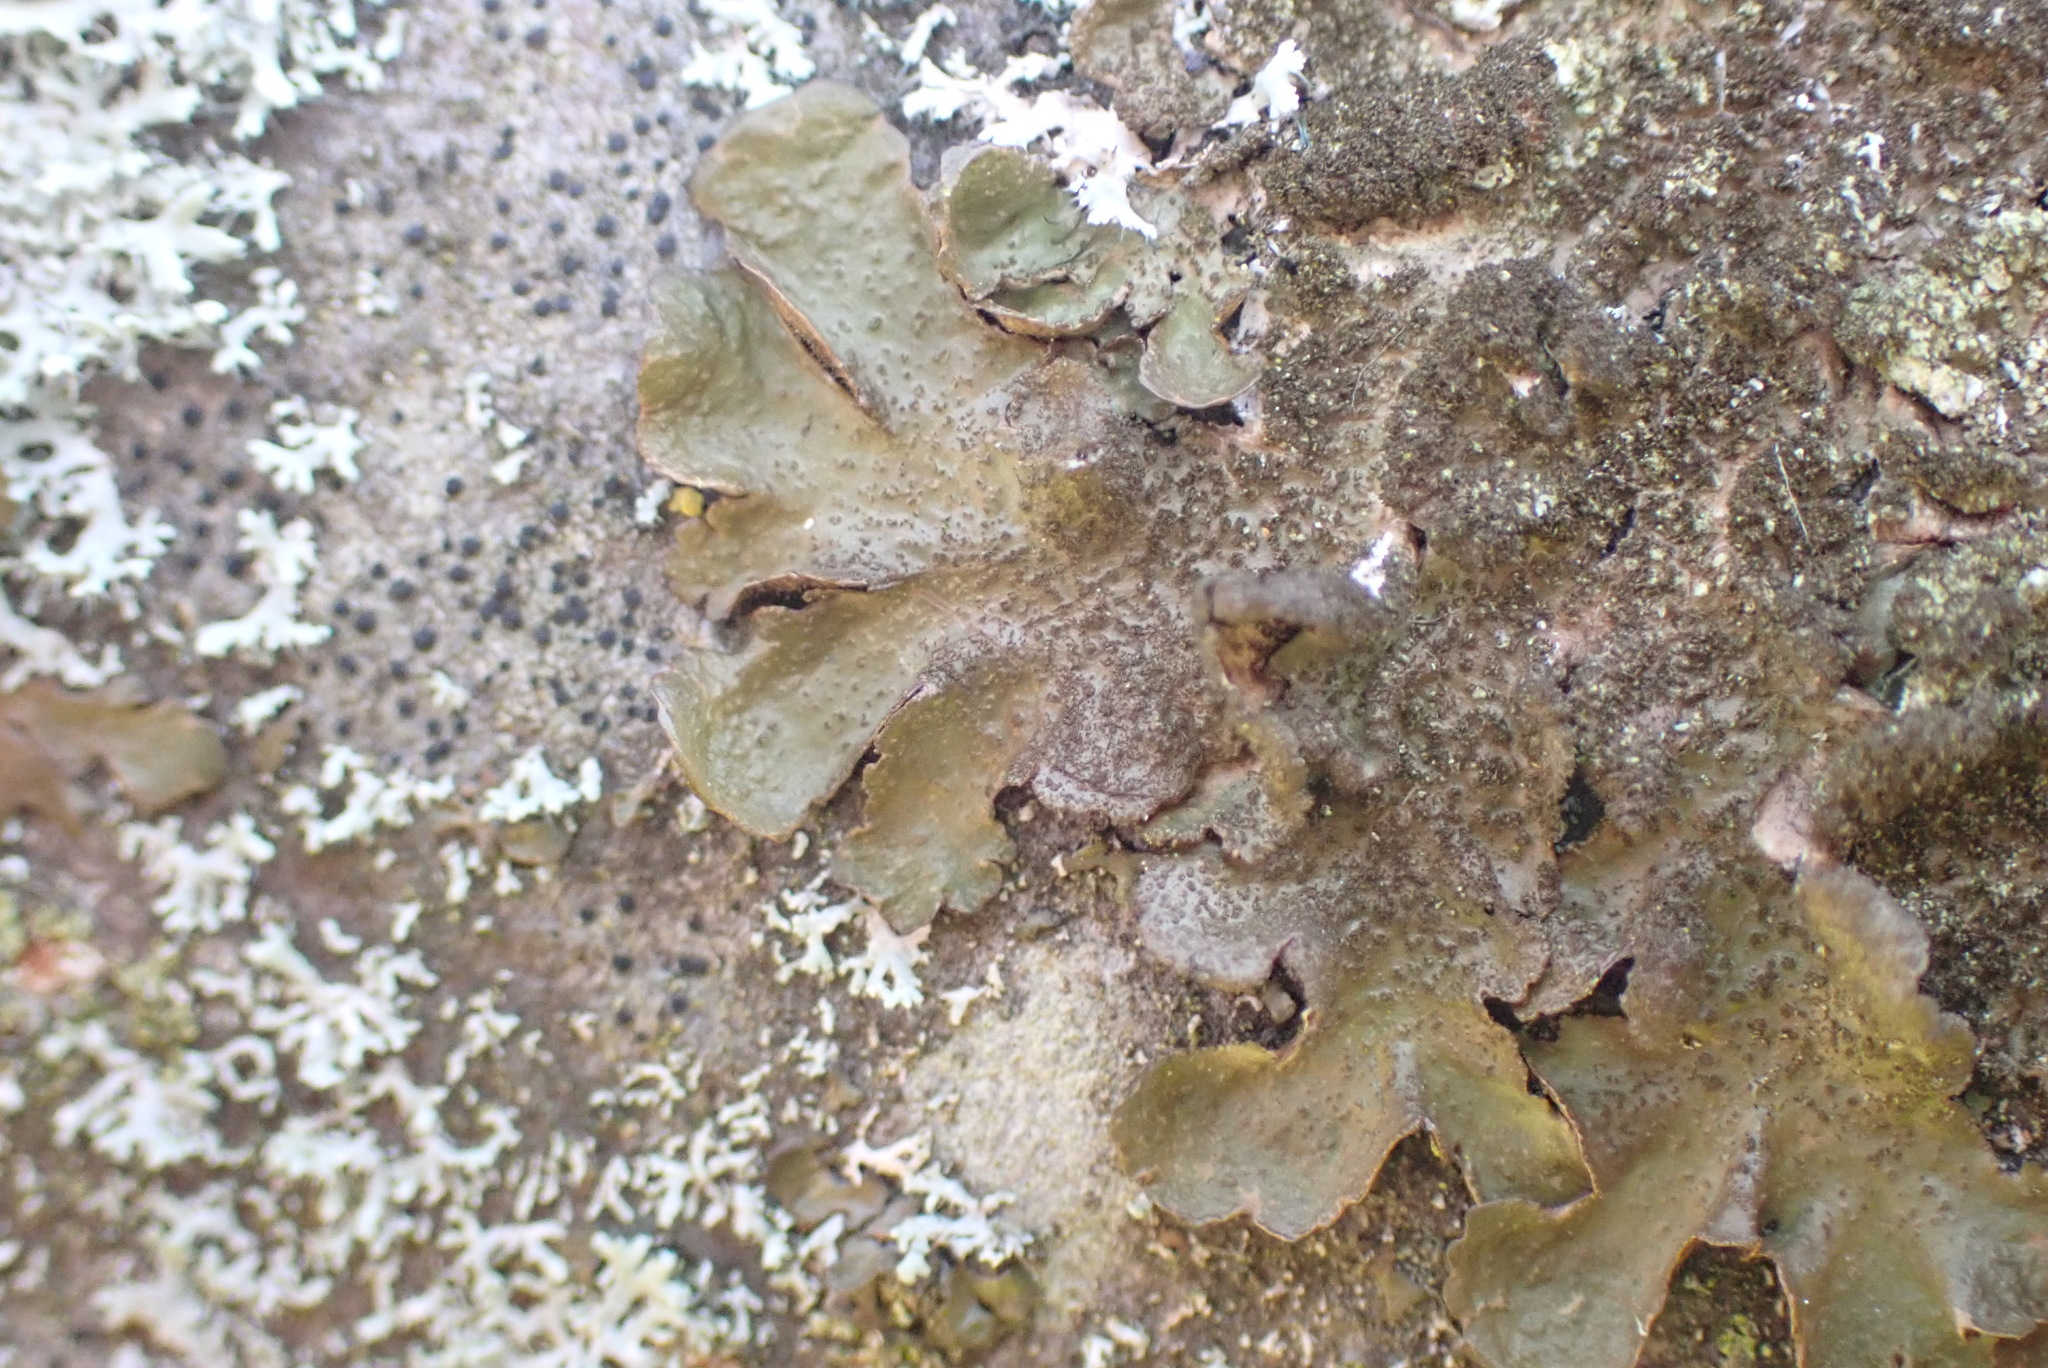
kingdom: Fungi
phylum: Ascomycota
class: Lecanoromycetes
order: Lecanorales
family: Parmeliaceae
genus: Melanelixia
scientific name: Melanelixia subaurifera
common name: Abraded camouflage lichen
